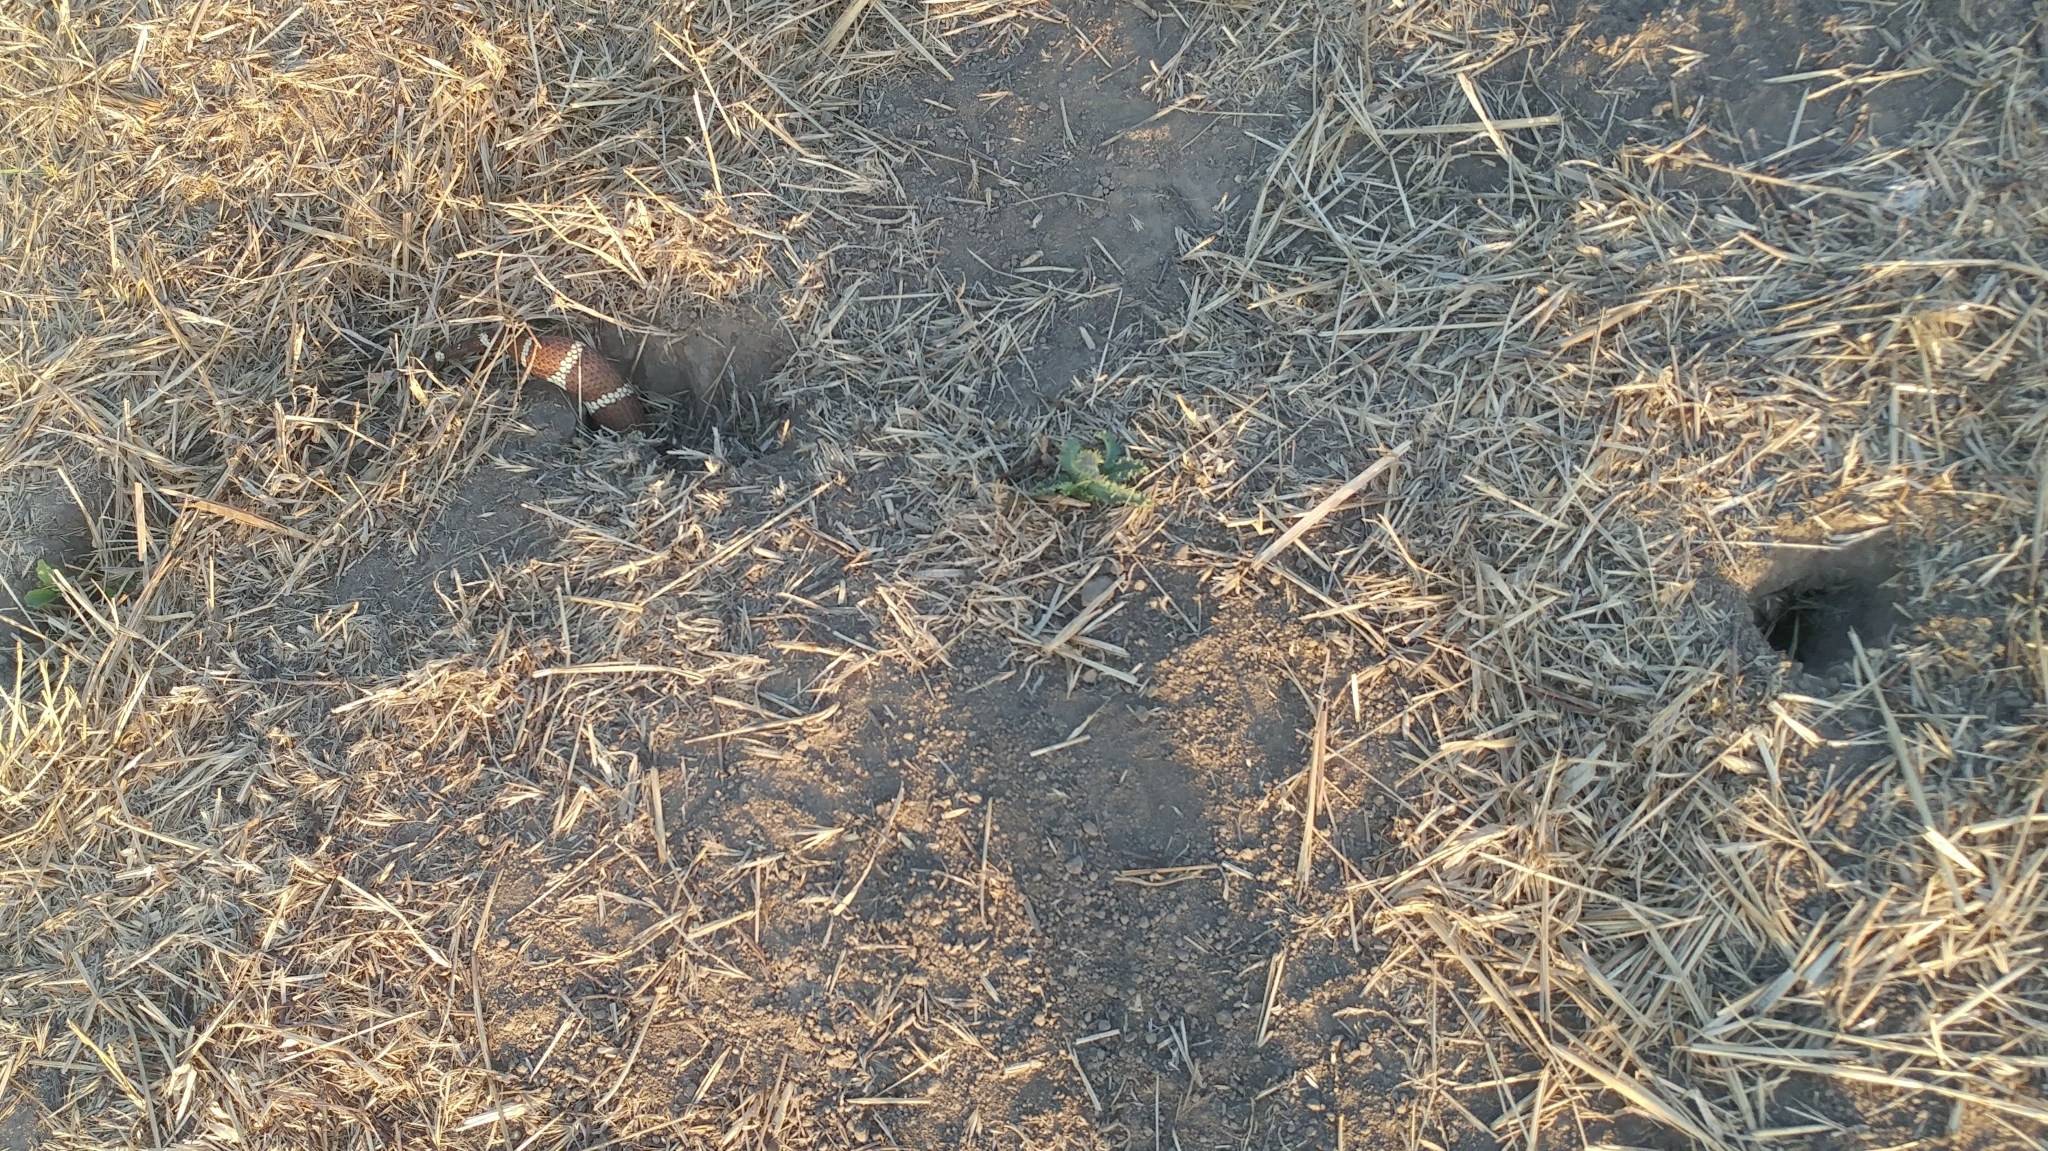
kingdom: Animalia
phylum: Chordata
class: Squamata
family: Colubridae
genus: Lampropeltis
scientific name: Lampropeltis californiae
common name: California kingsnake
